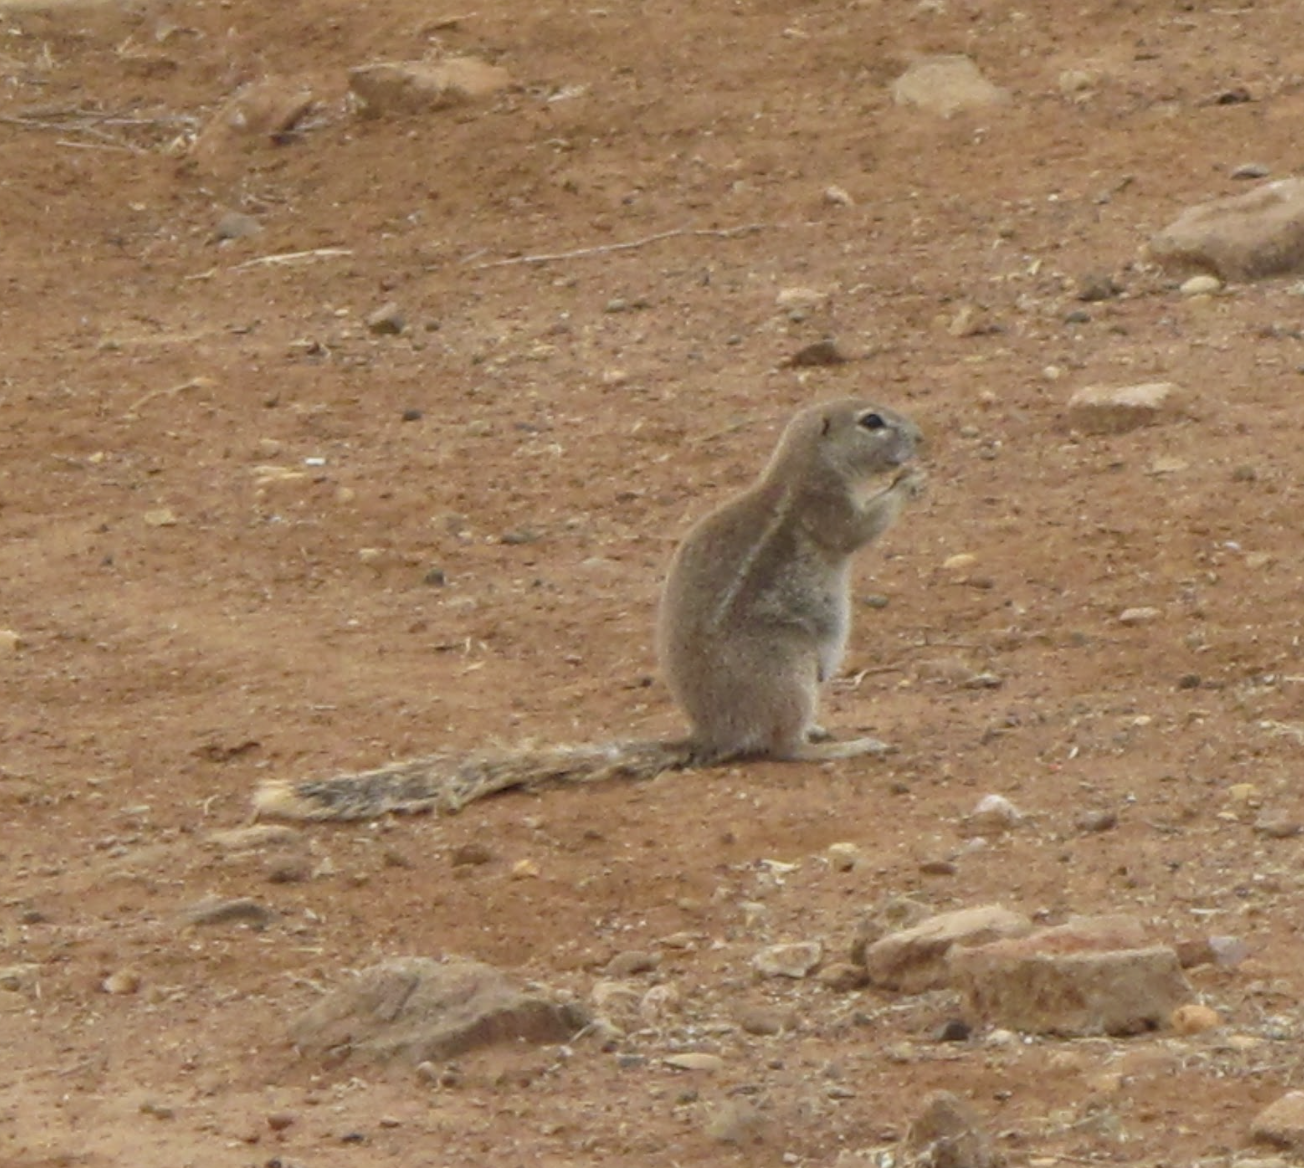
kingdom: Animalia
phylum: Chordata
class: Mammalia
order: Rodentia
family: Sciuridae
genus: Xerus
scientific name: Xerus inauris
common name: South african ground squirrel
